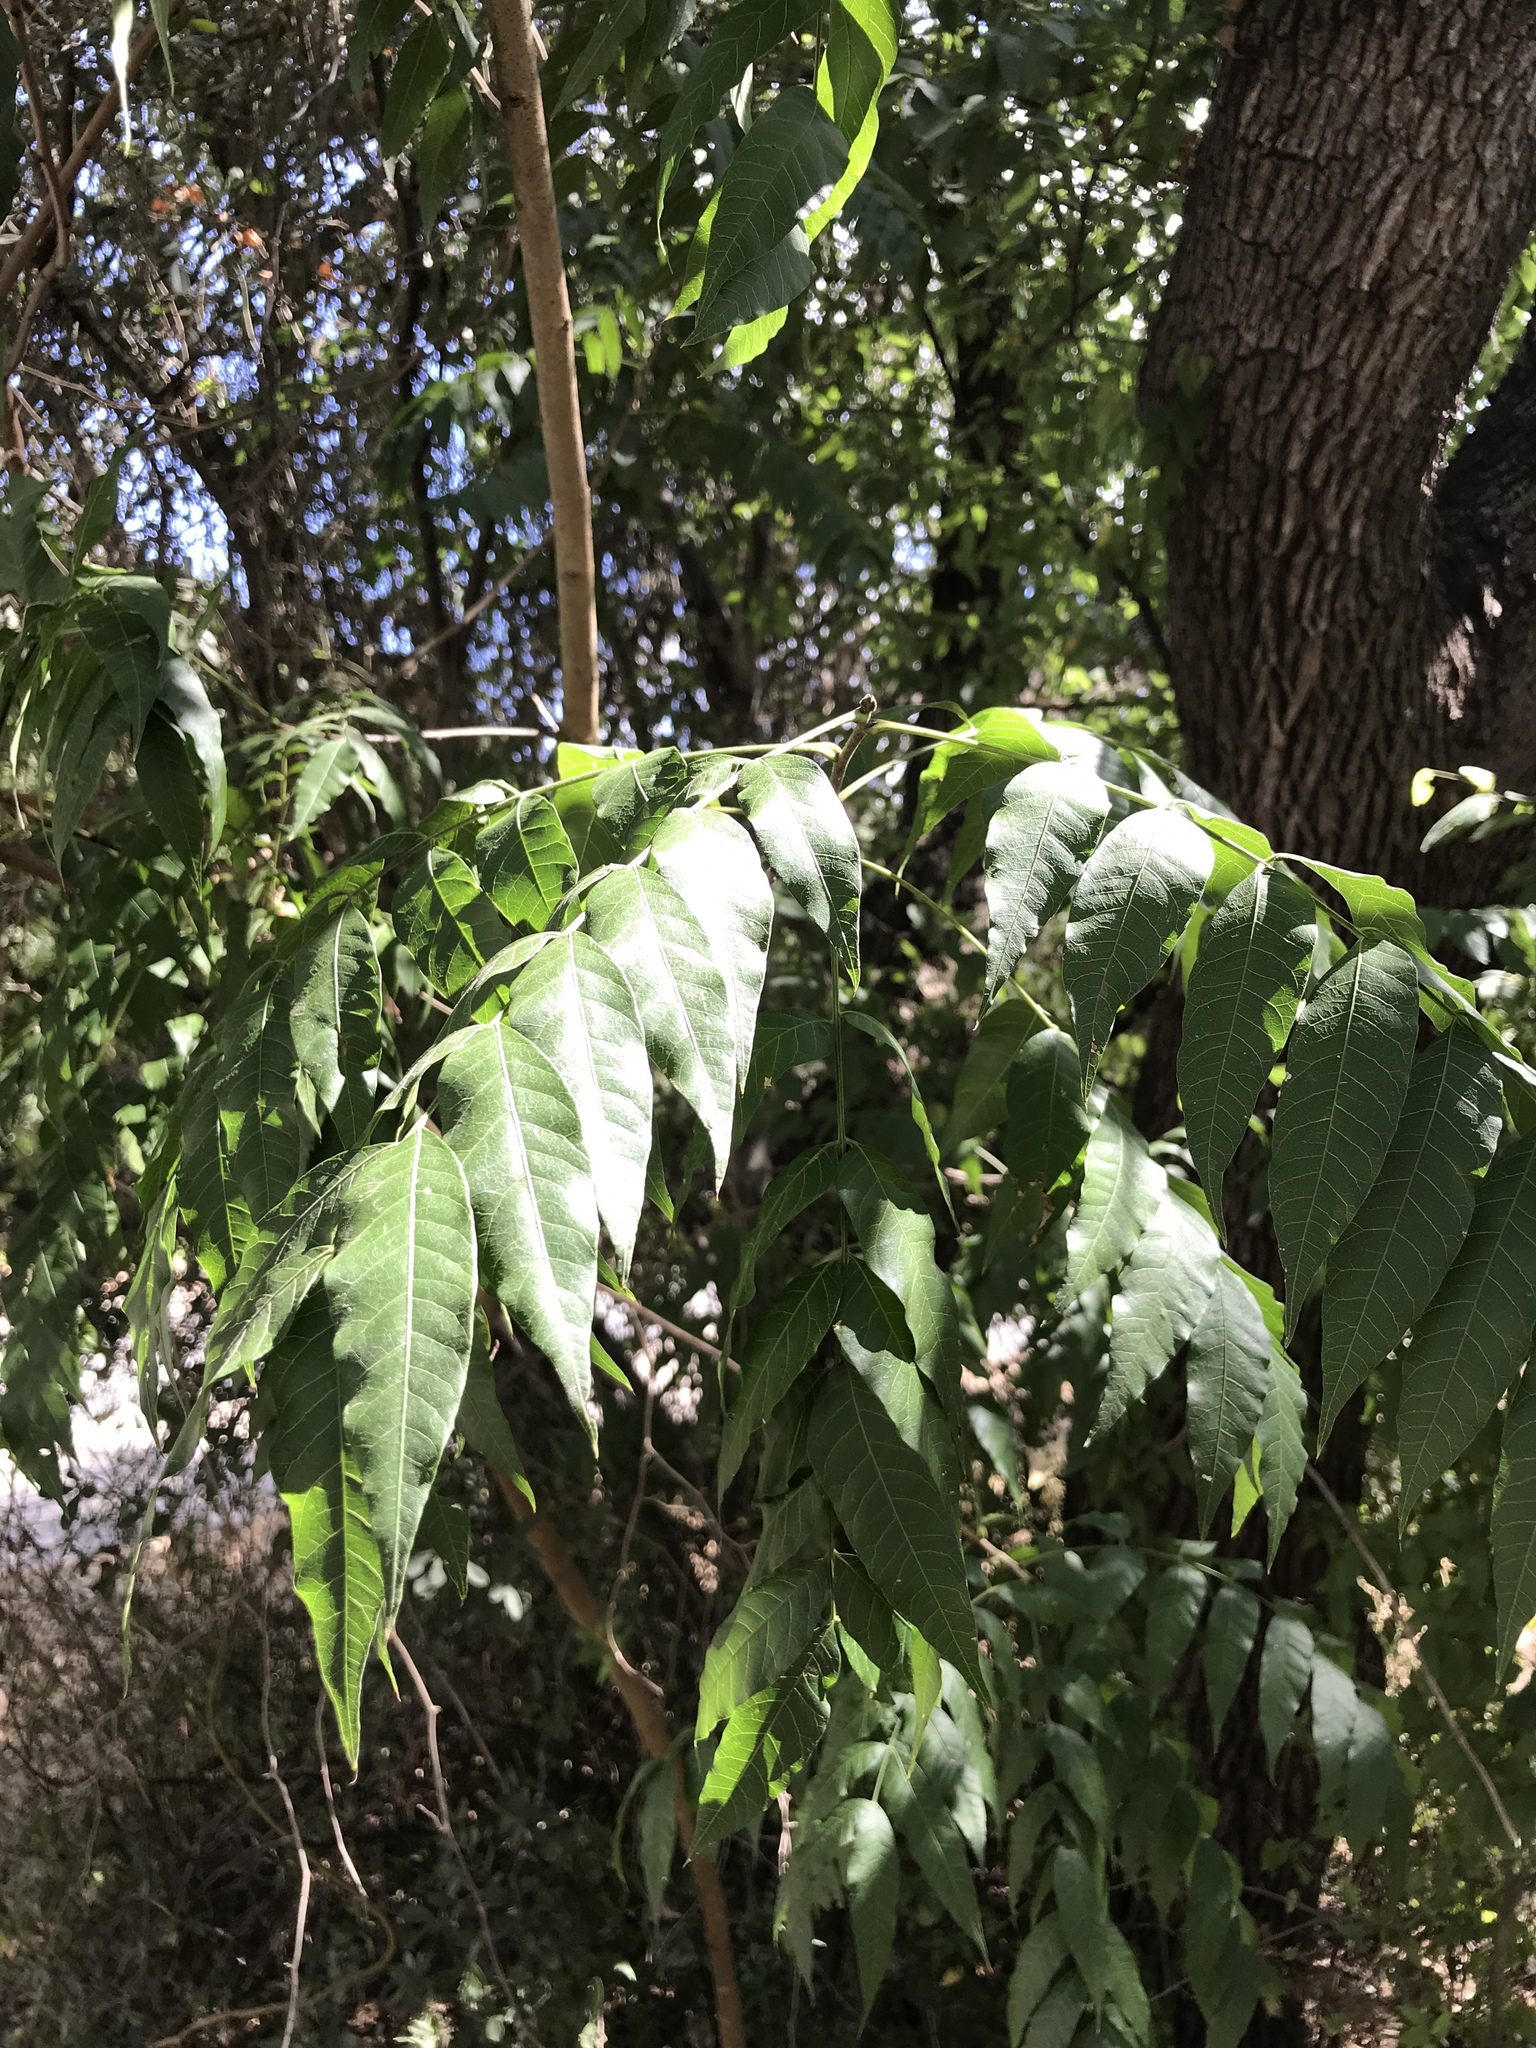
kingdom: Plantae
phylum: Tracheophyta
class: Magnoliopsida
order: Sapindales
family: Meliaceae
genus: Melia
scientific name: Melia azedarach
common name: Chinaberrytree
